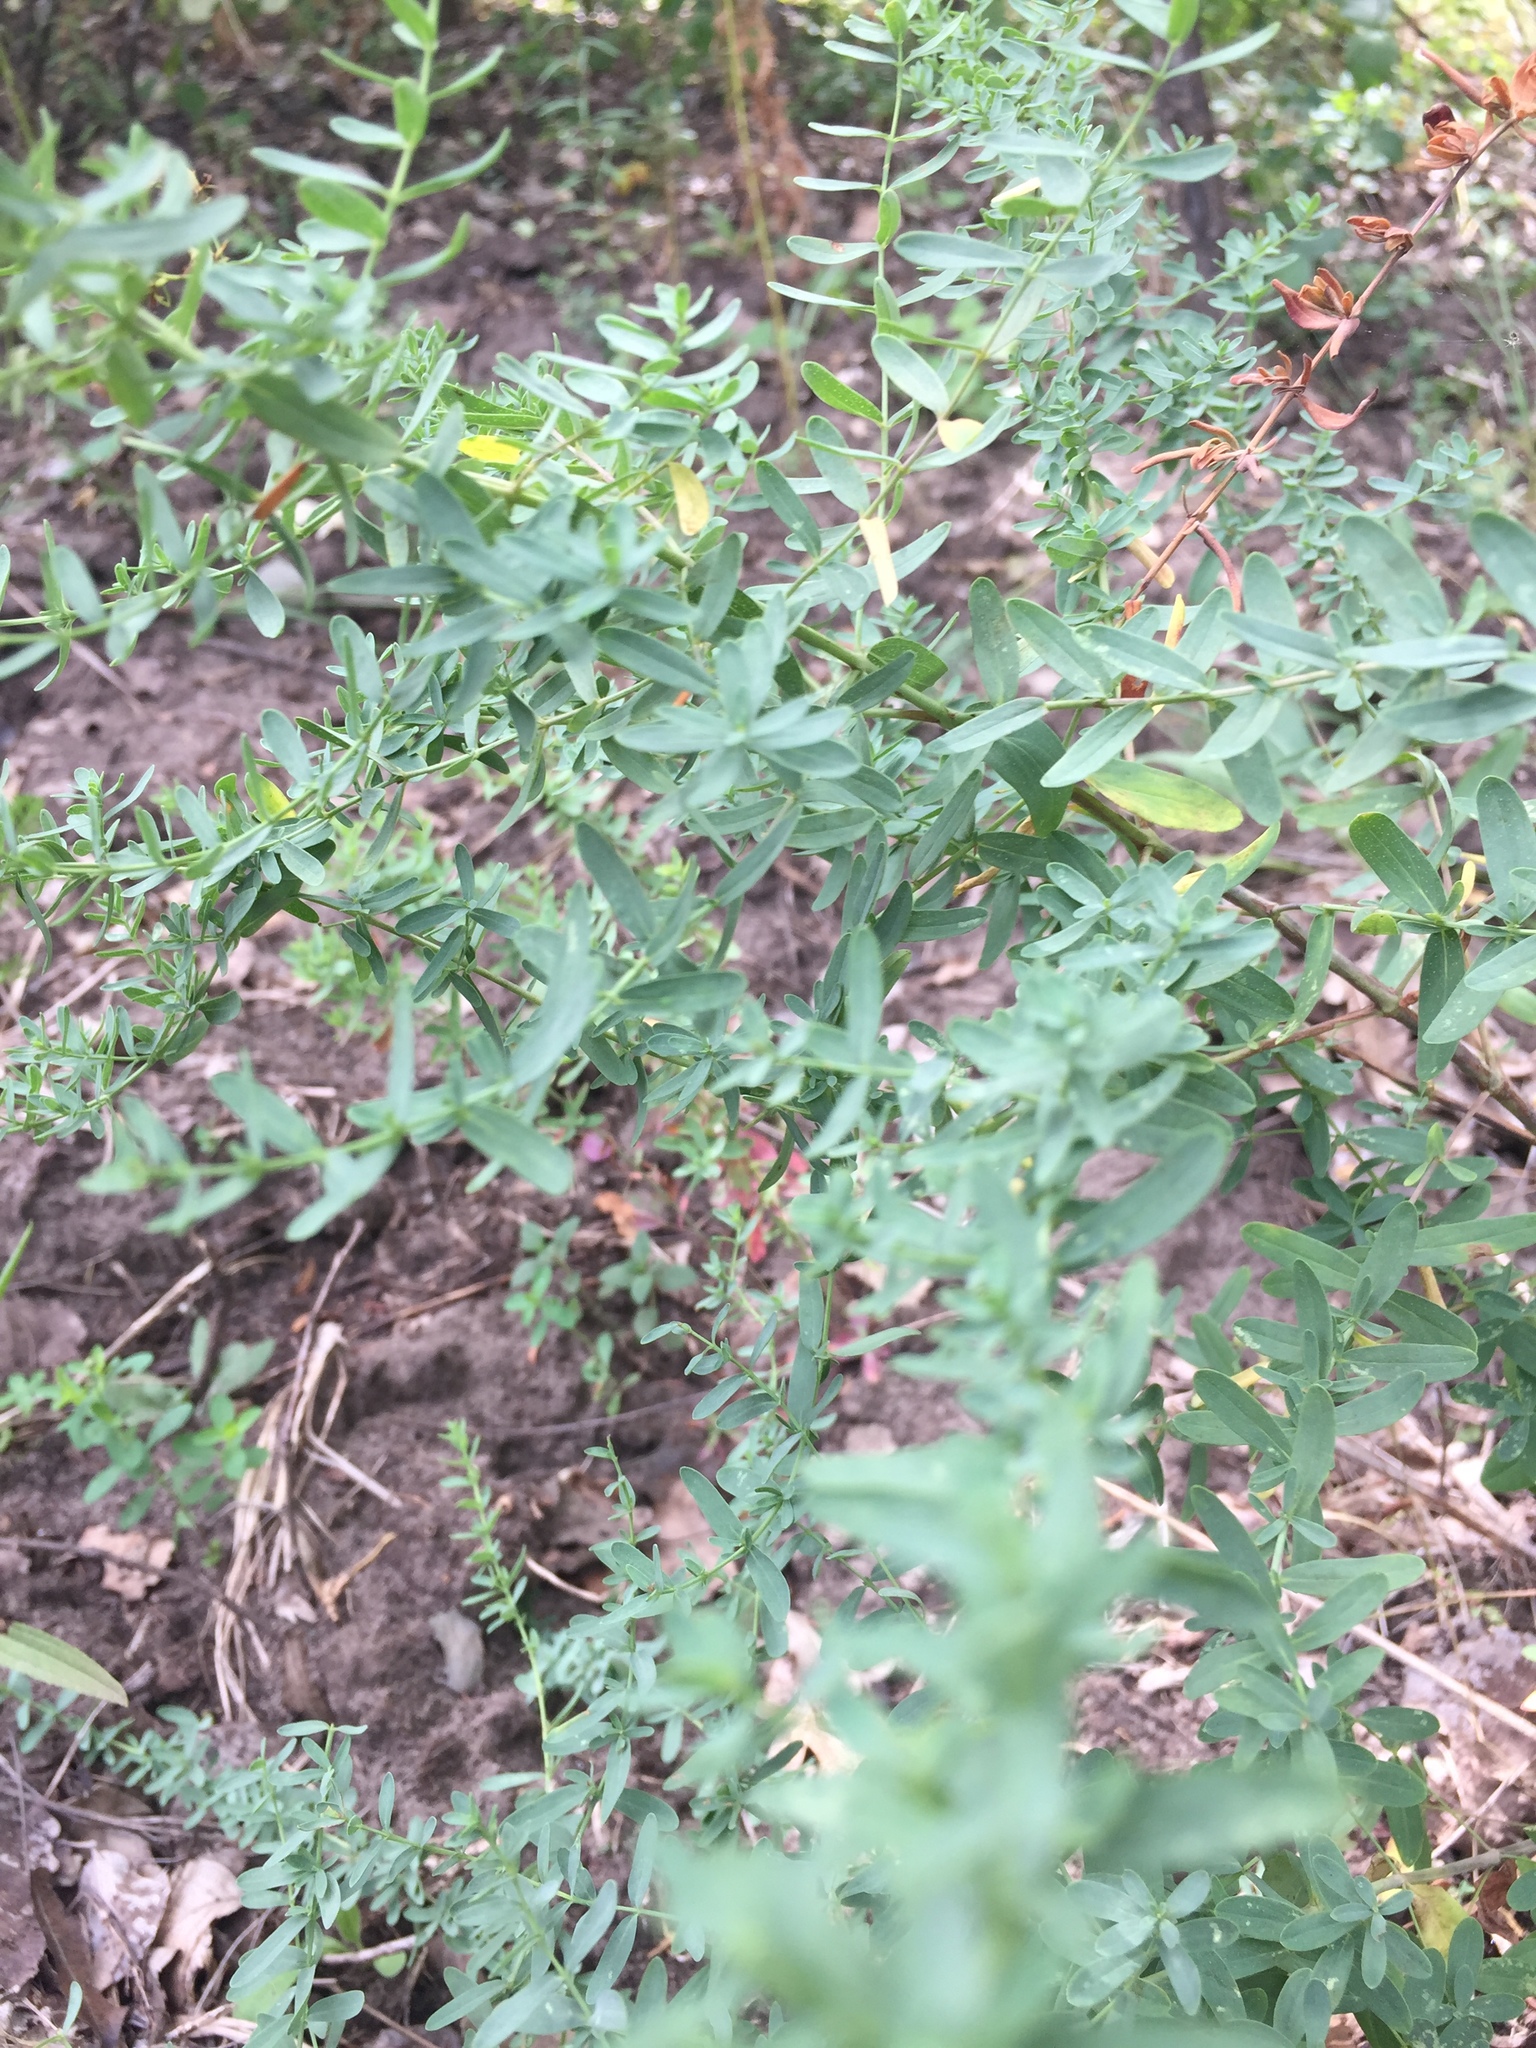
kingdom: Plantae
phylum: Tracheophyta
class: Magnoliopsida
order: Malpighiales
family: Hypericaceae
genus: Hypericum
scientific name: Hypericum perforatum
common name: Common st. johnswort
